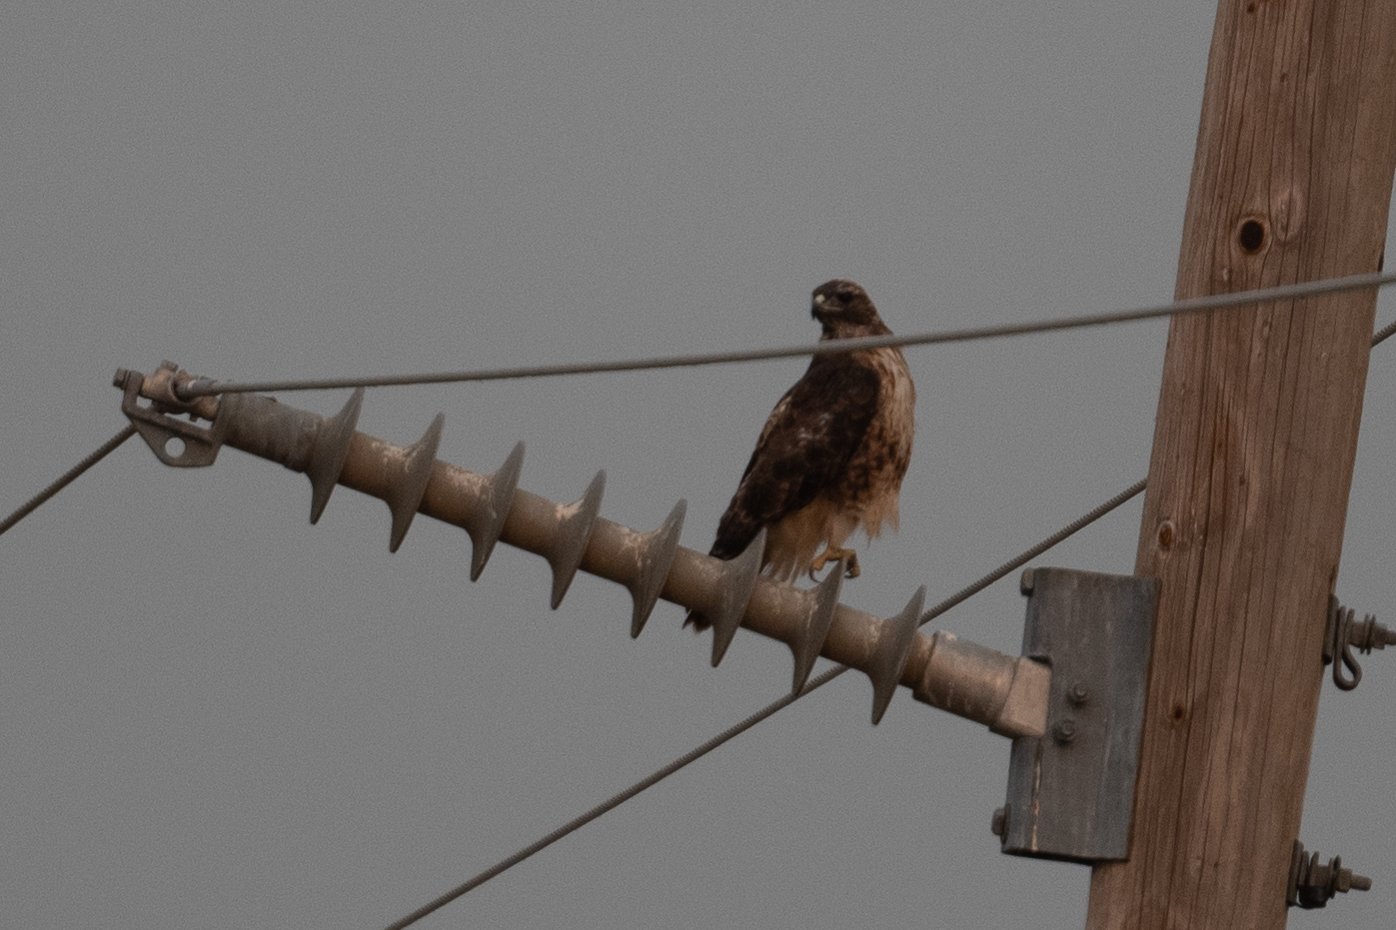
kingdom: Animalia
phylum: Chordata
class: Aves
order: Accipitriformes
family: Accipitridae
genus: Buteo
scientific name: Buteo jamaicensis
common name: Red-tailed hawk
